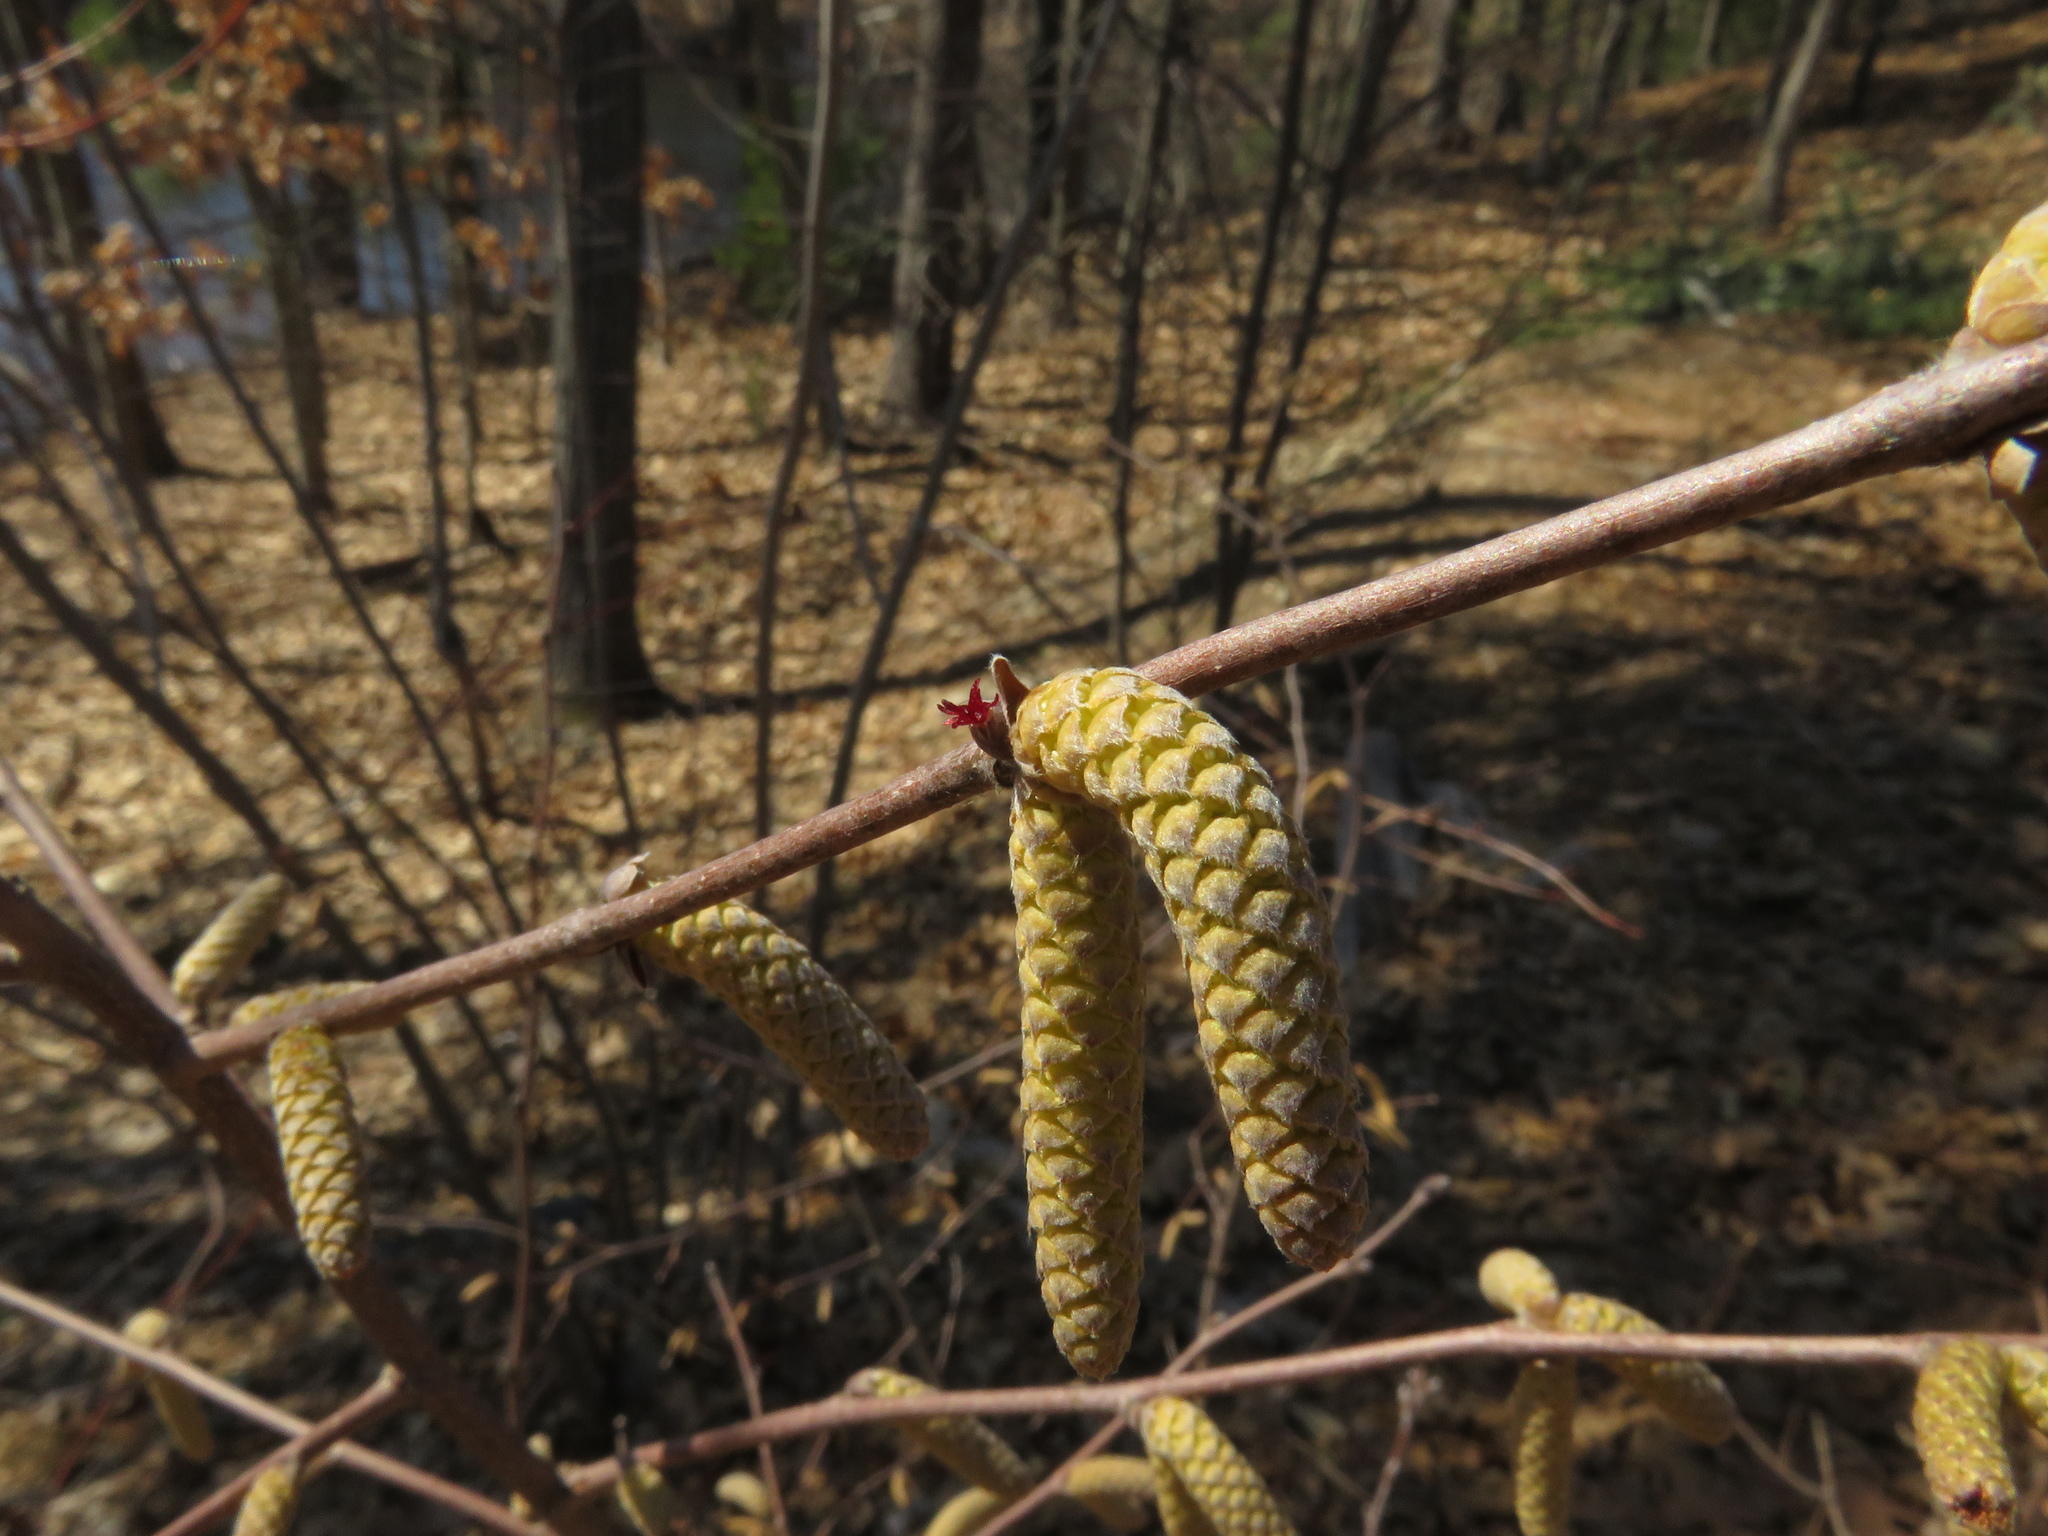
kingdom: Plantae
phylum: Tracheophyta
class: Magnoliopsida
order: Fagales
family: Betulaceae
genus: Corylus
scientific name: Corylus cornuta
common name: Beaked hazel
